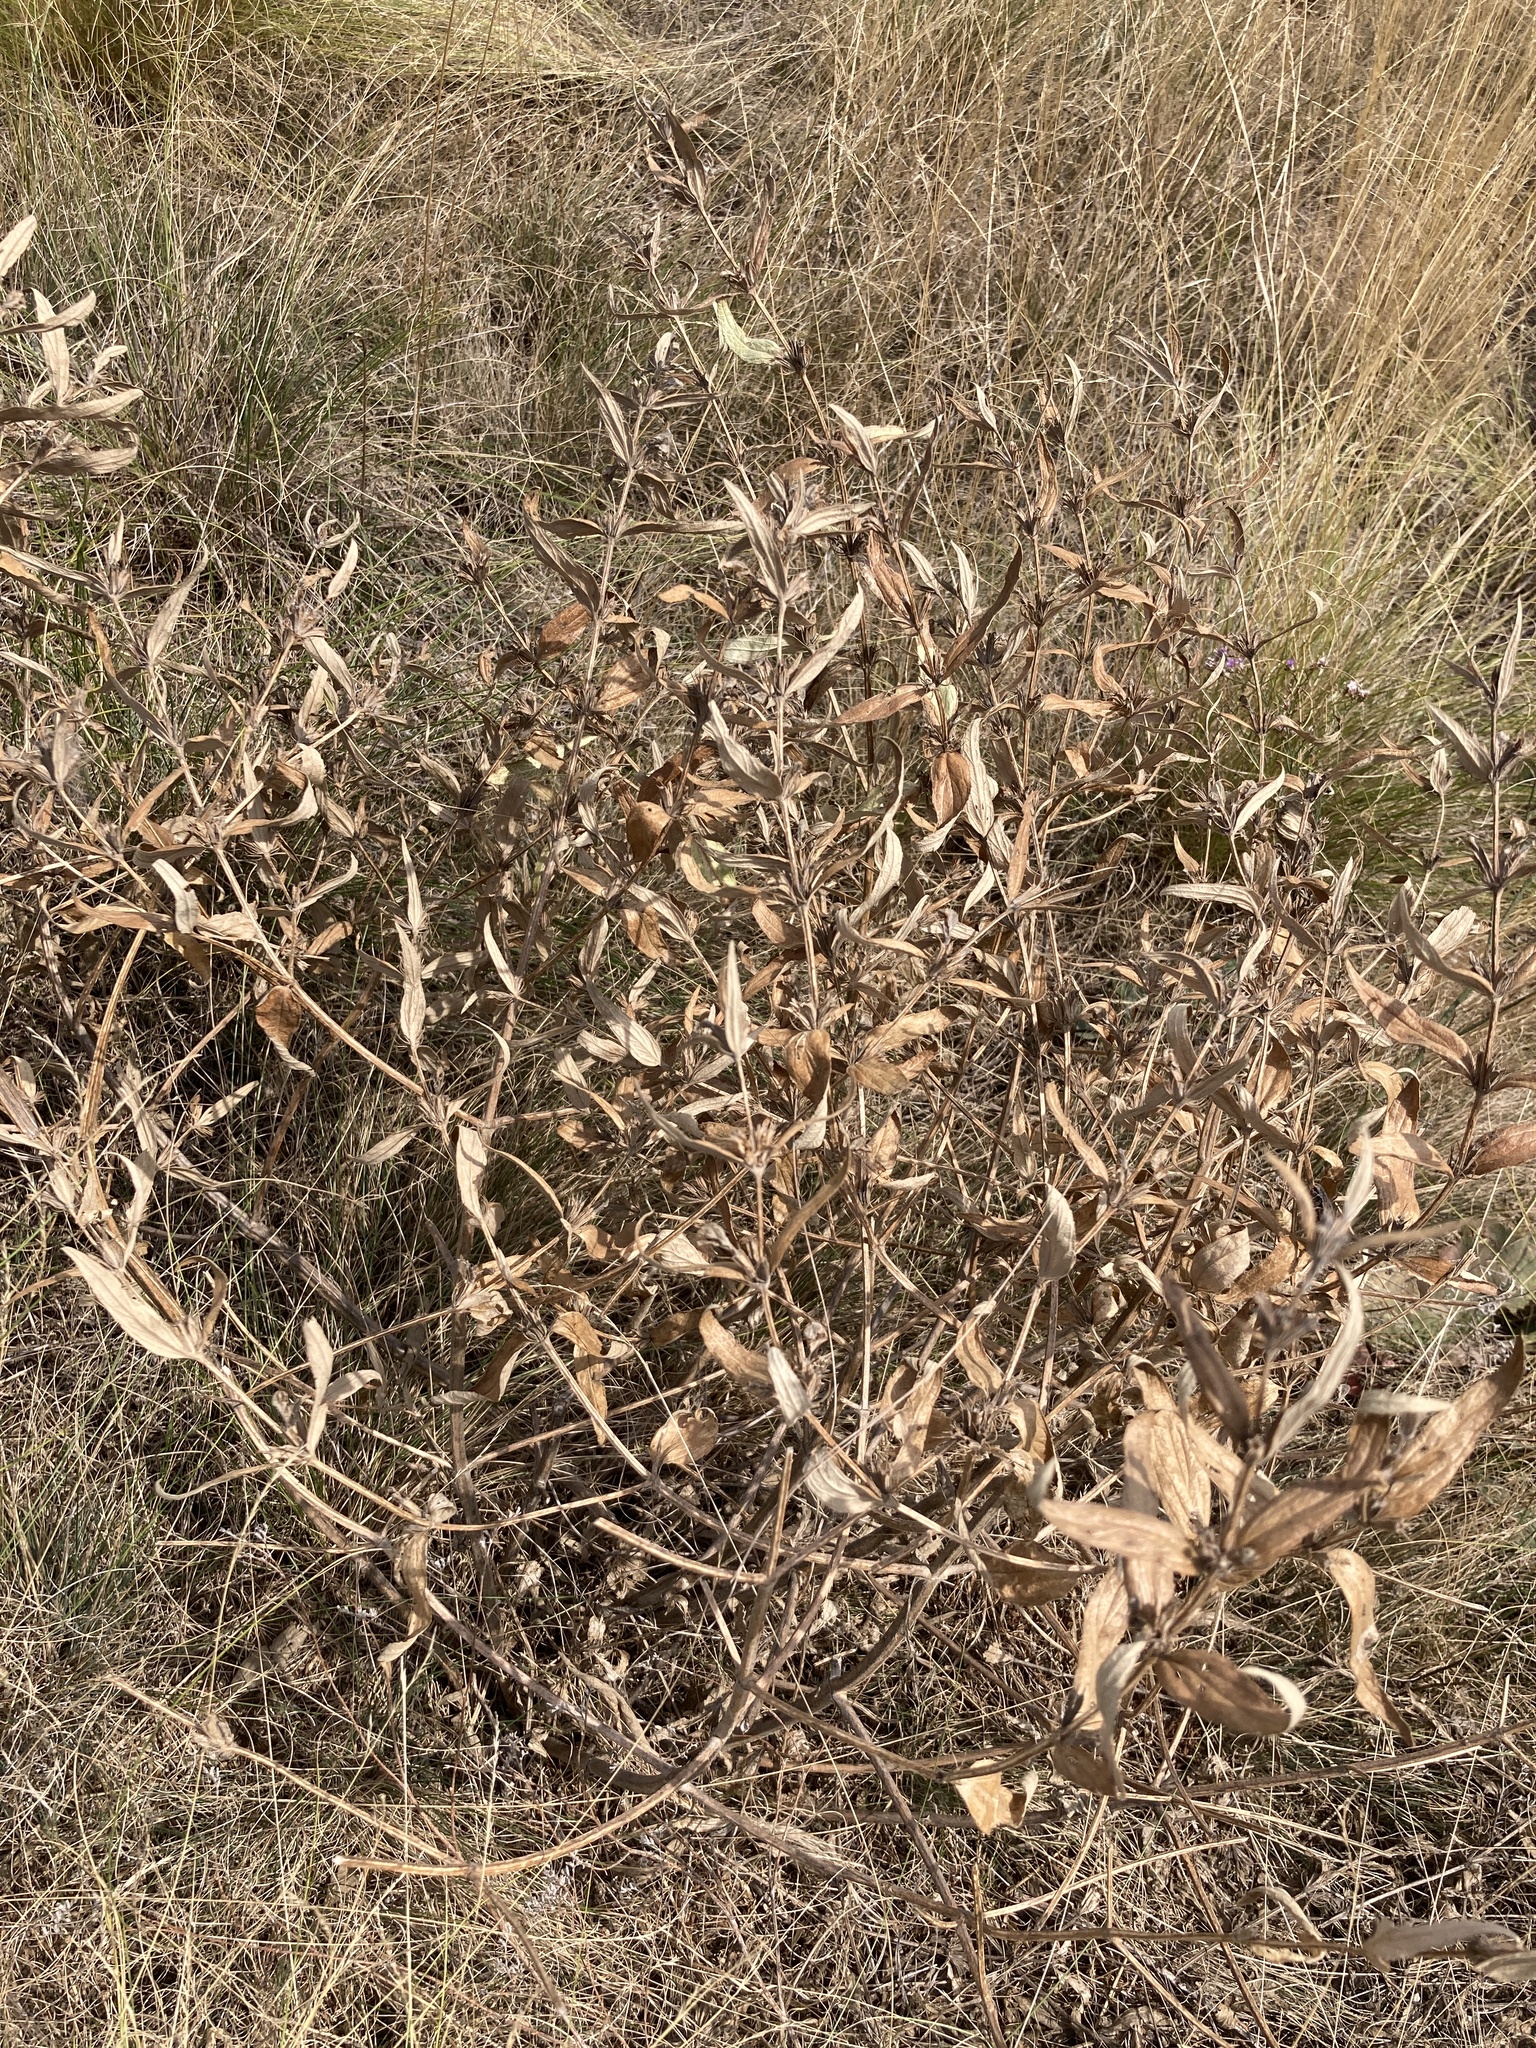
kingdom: Plantae
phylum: Tracheophyta
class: Magnoliopsida
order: Lamiales
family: Lamiaceae
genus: Phlomis
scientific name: Phlomis herba-venti
